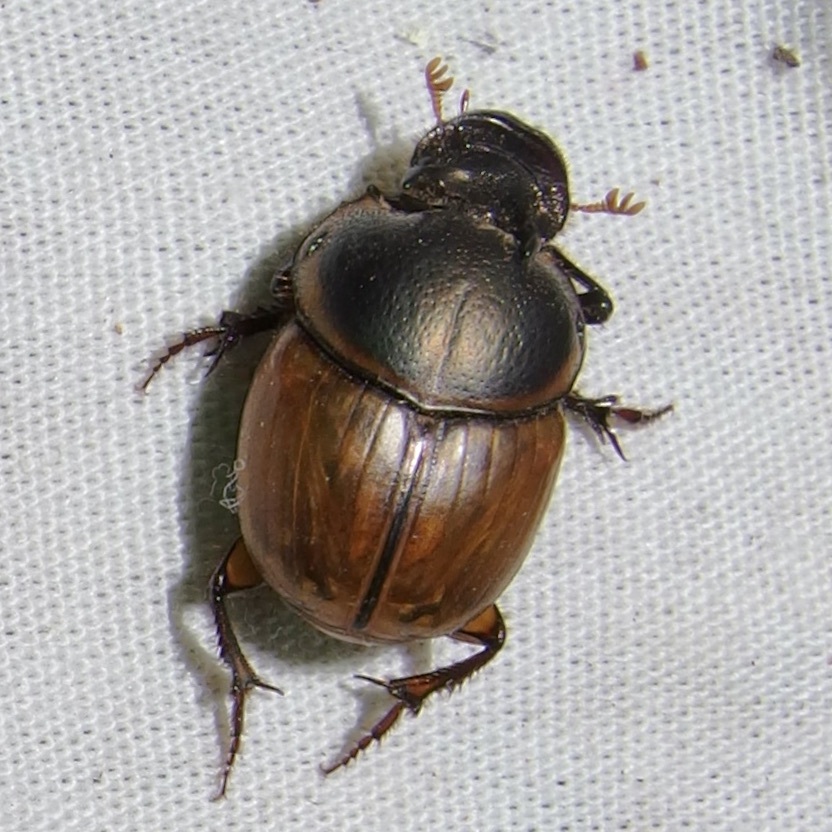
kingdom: Animalia
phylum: Arthropoda
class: Insecta
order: Coleoptera
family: Scarabaeidae
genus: Digitonthophagus
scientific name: Digitonthophagus gazella
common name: Brown dung beetle
